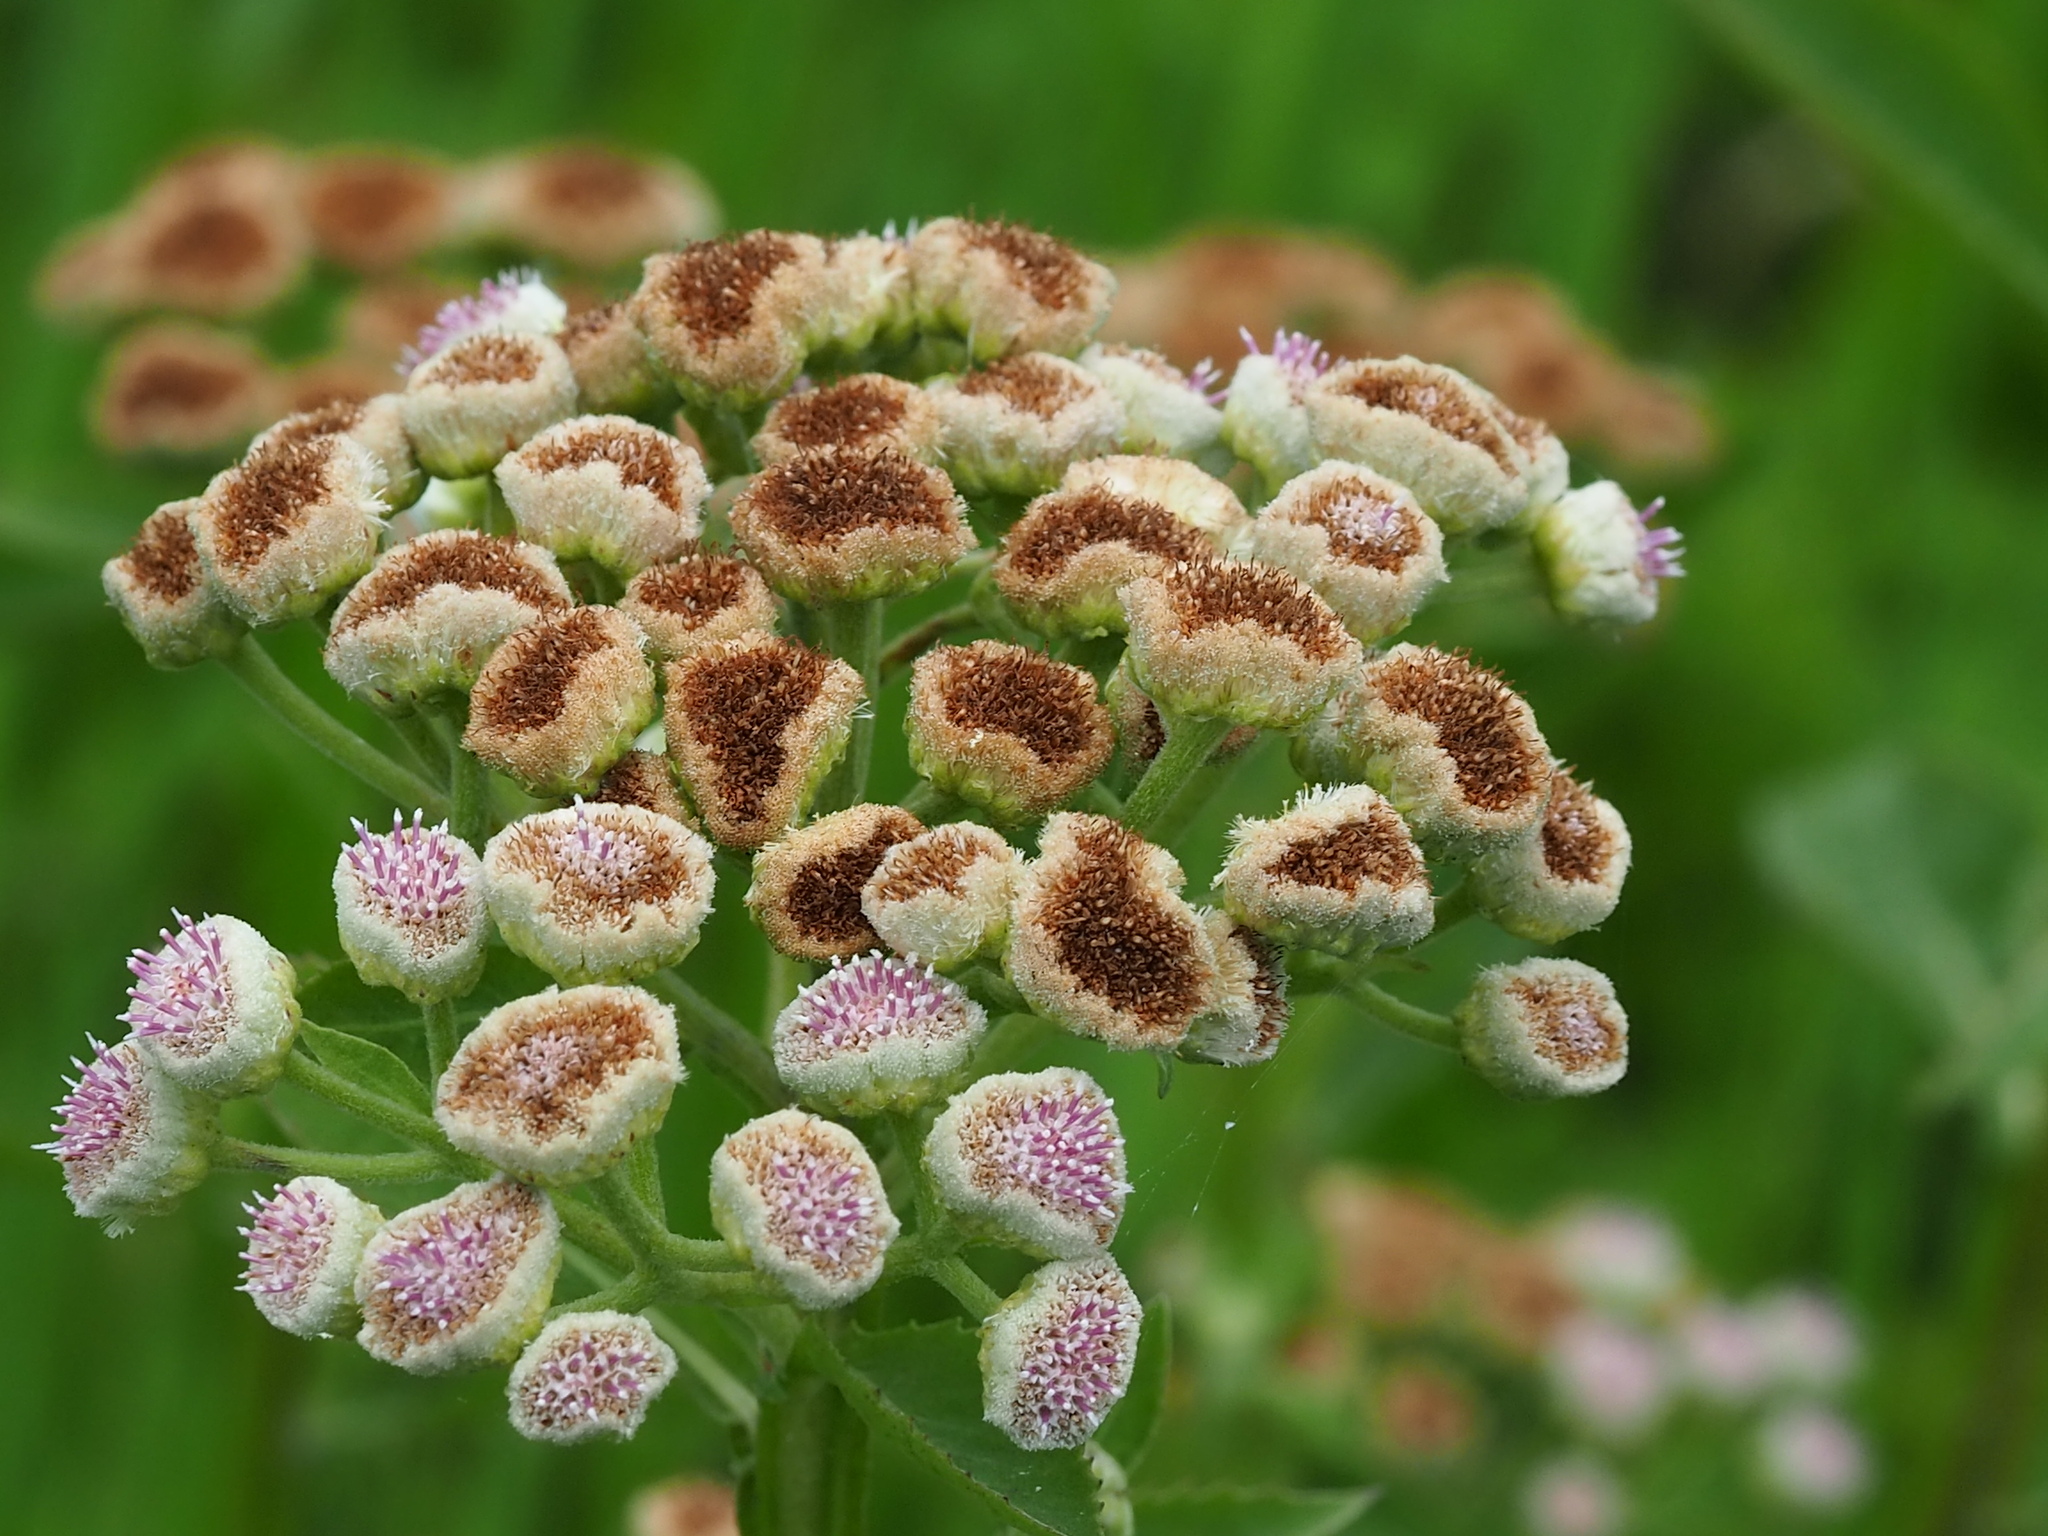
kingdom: Plantae
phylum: Tracheophyta
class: Magnoliopsida
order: Asterales
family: Asteraceae
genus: Pluchea
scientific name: Pluchea sagittalis
